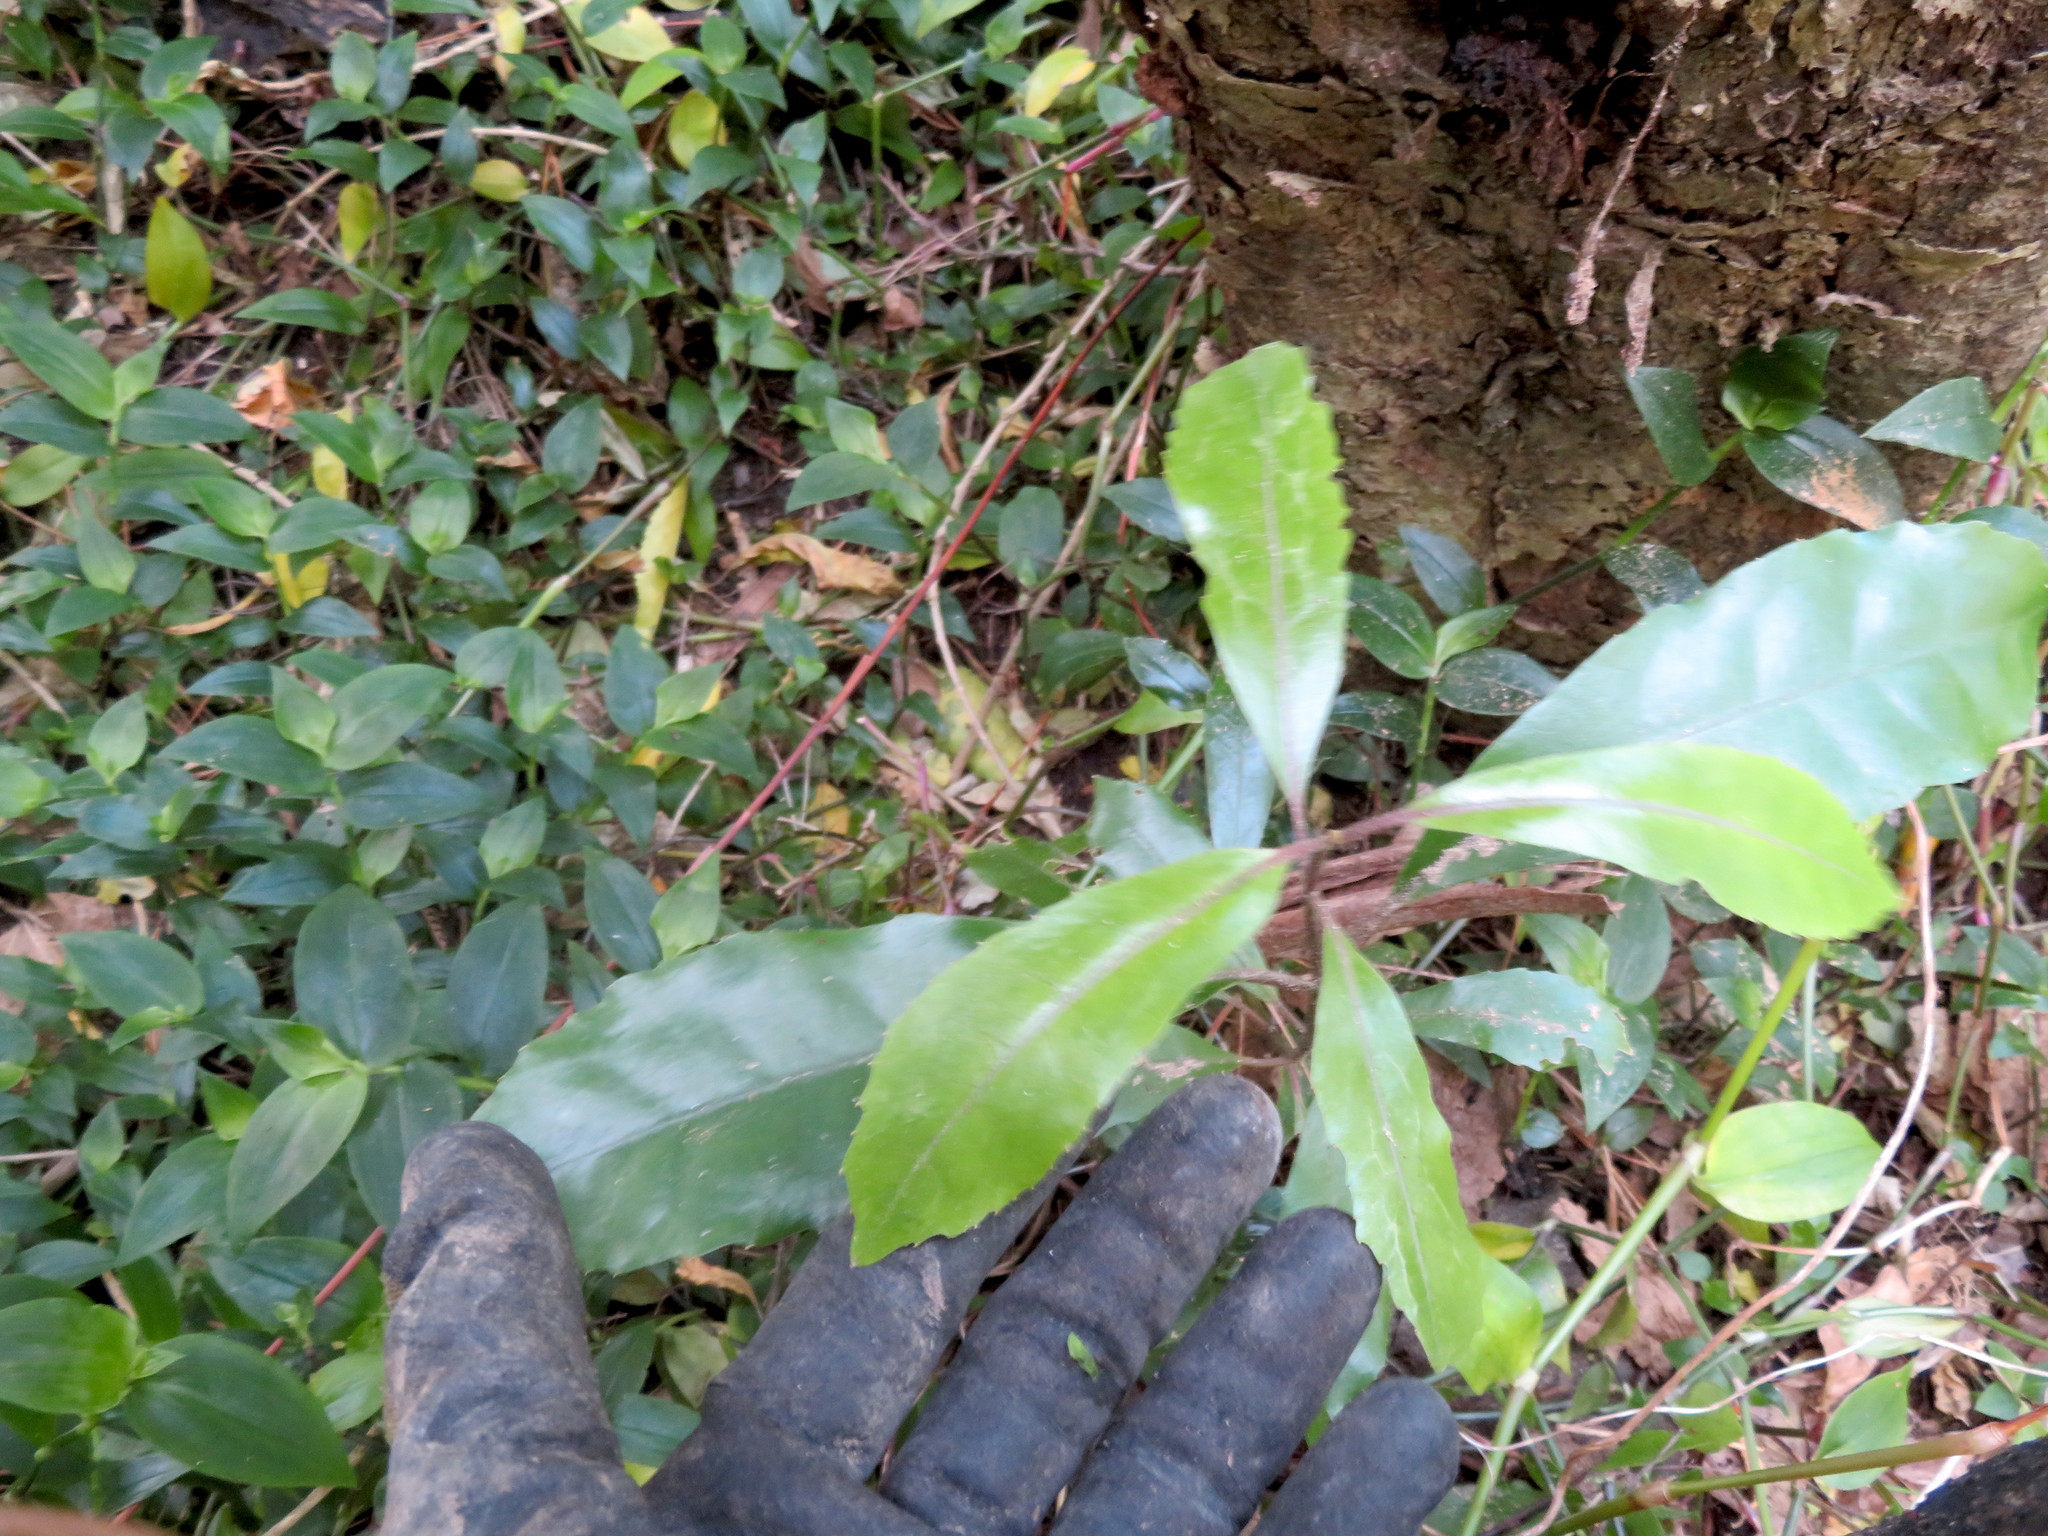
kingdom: Plantae
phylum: Tracheophyta
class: Magnoliopsida
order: Laurales
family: Monimiaceae
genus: Hedycarya
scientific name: Hedycarya arborea
